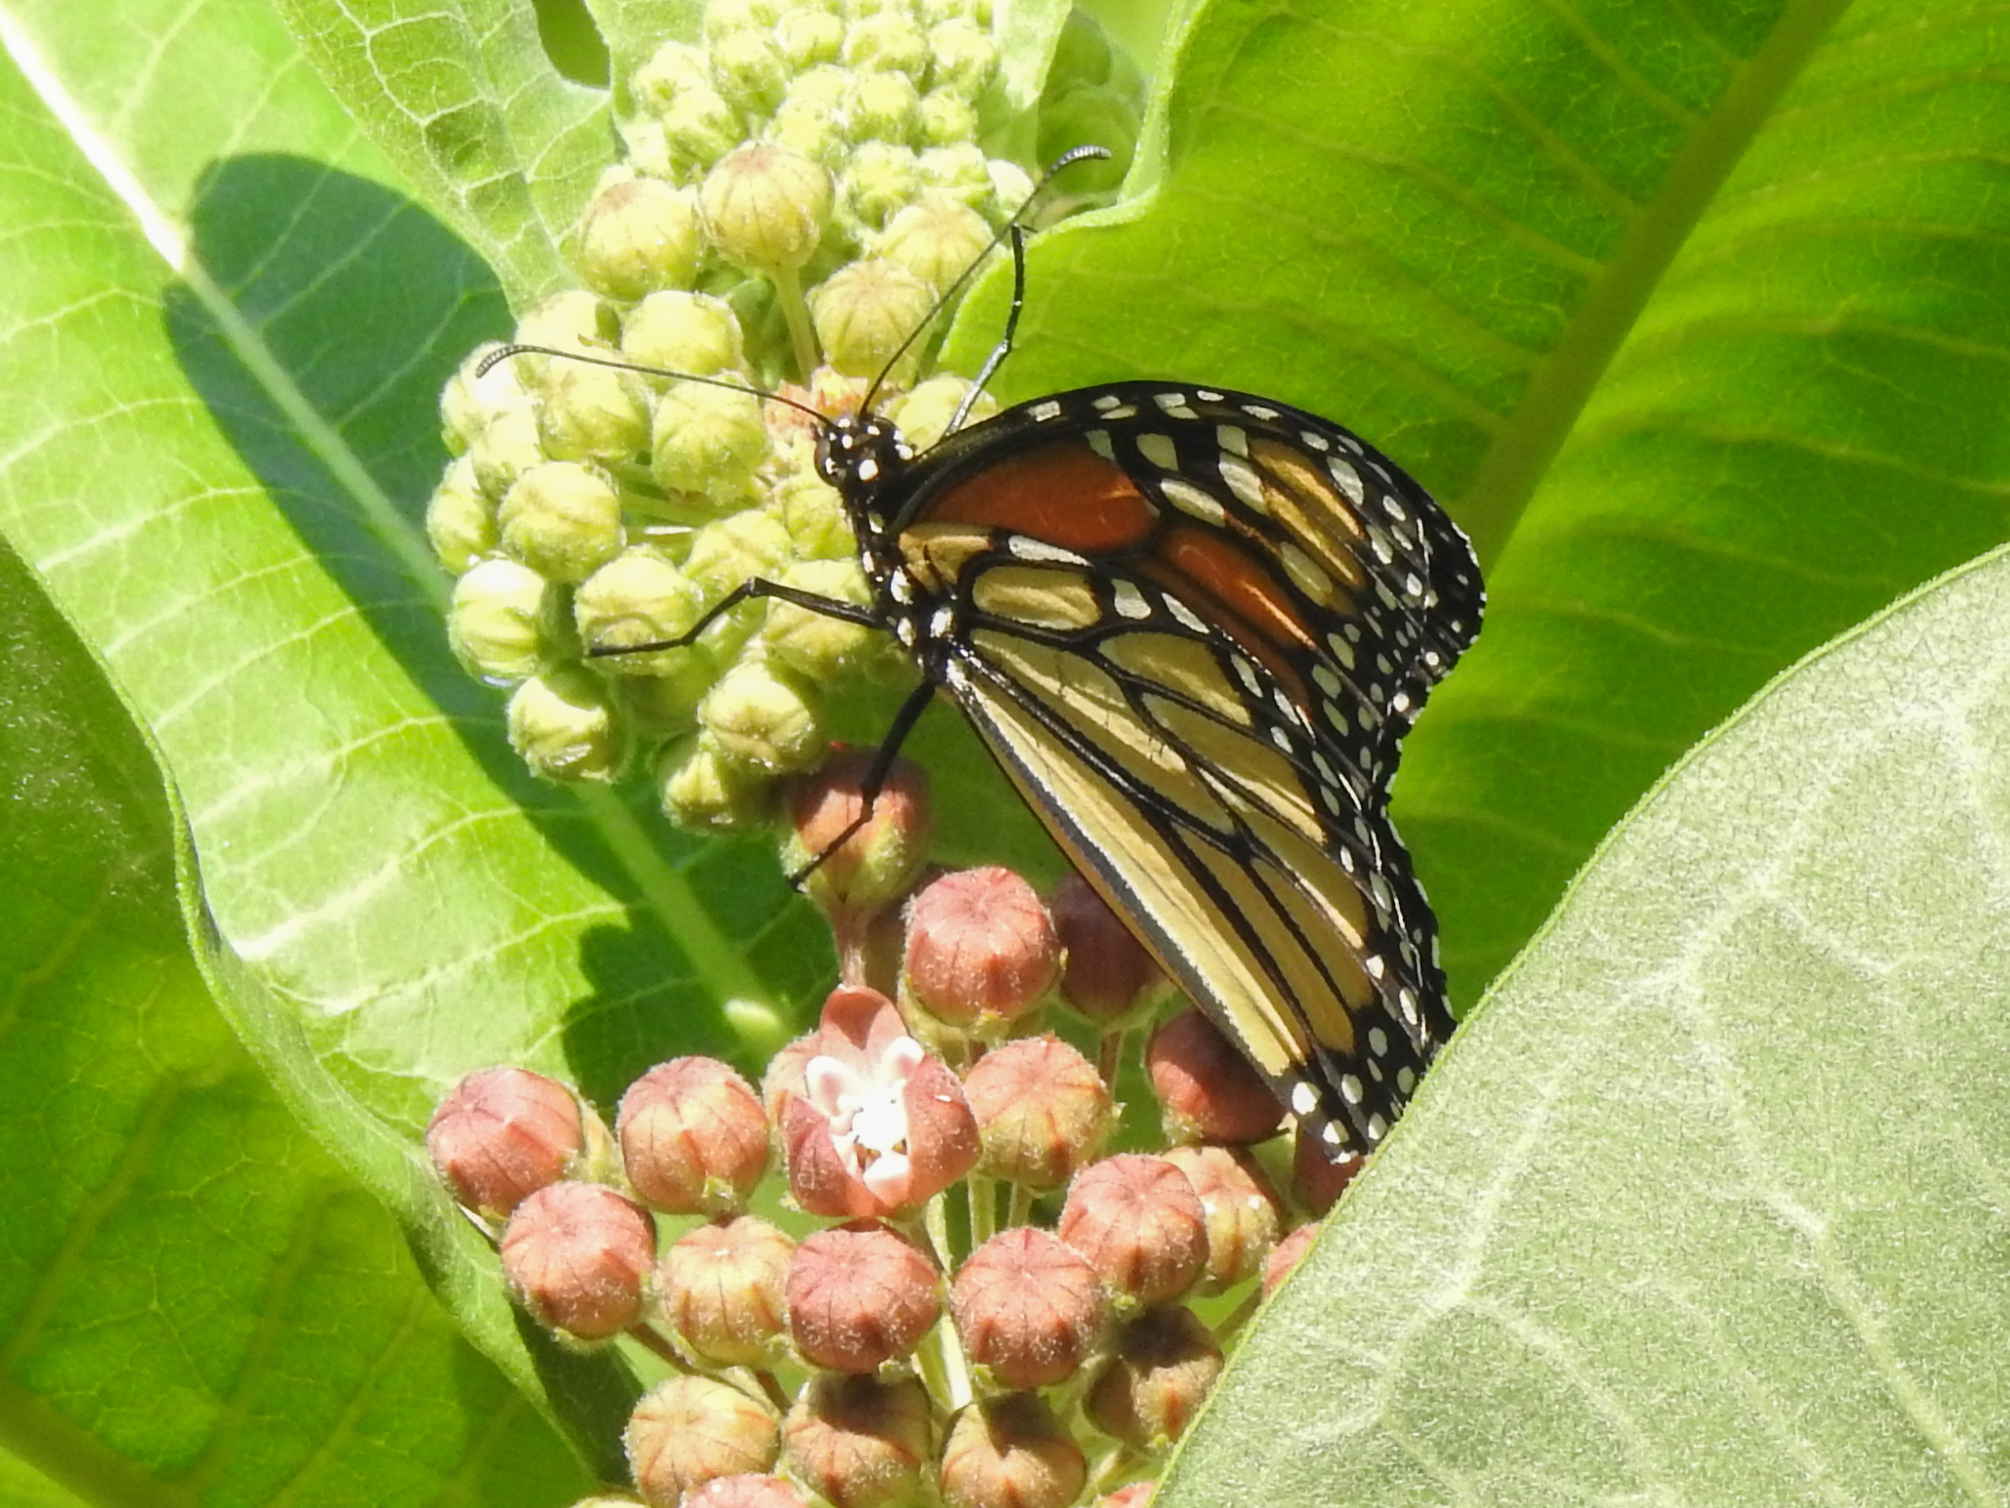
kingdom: Animalia
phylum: Arthropoda
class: Insecta
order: Lepidoptera
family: Nymphalidae
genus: Danaus
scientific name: Danaus plexippus
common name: Monarch
